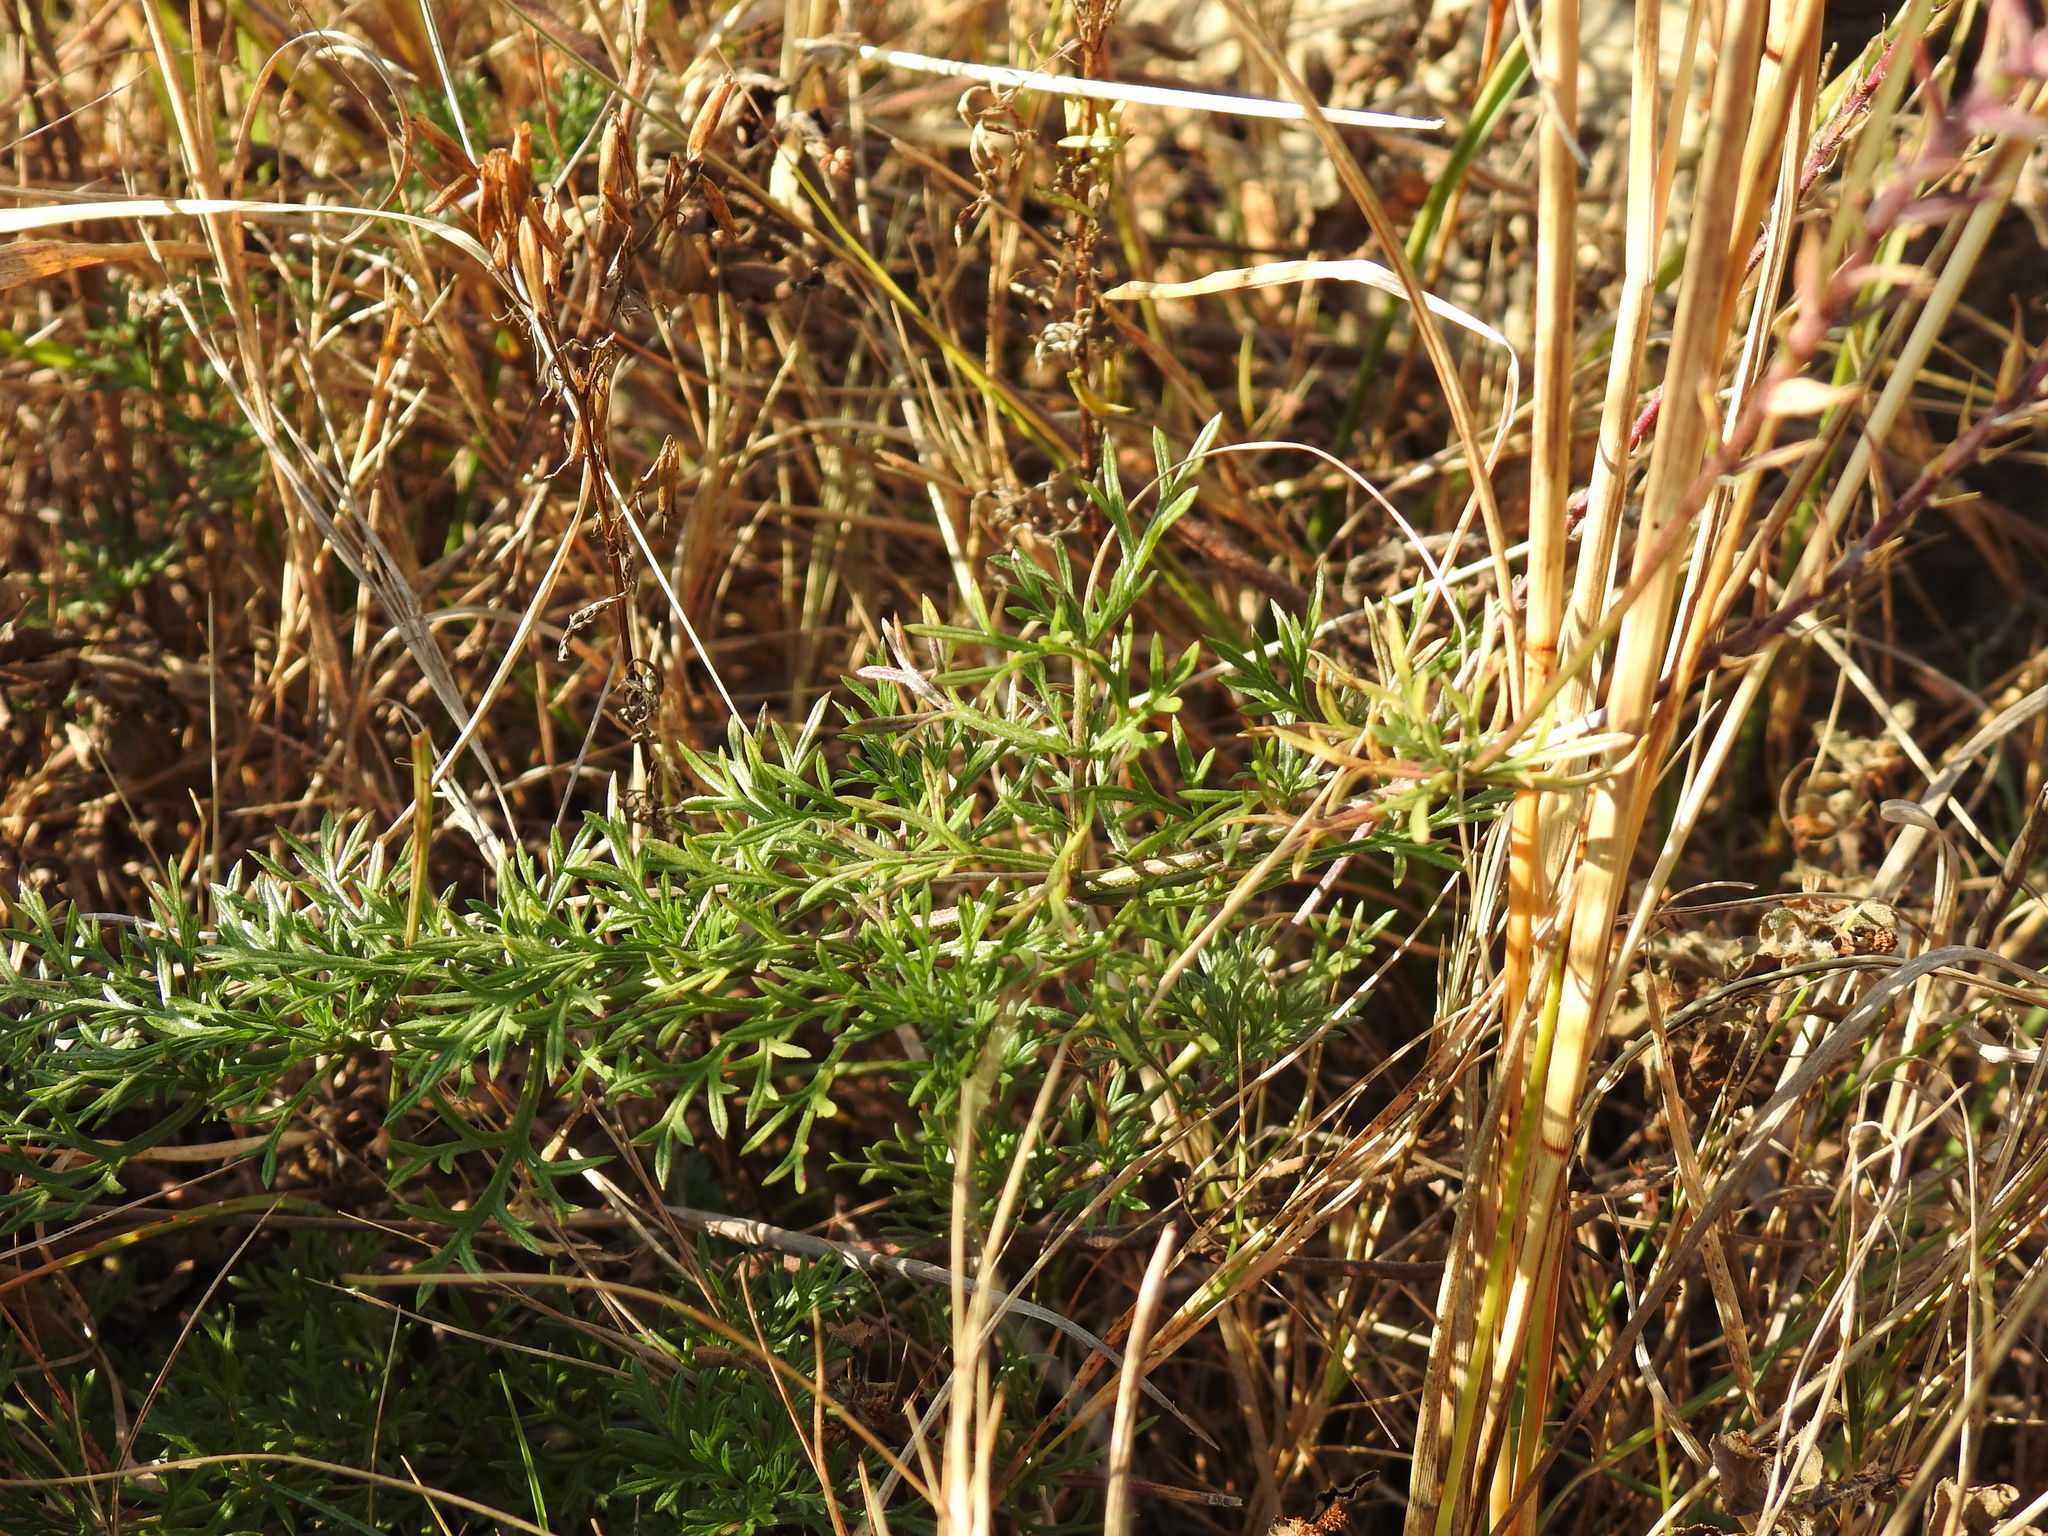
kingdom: Plantae
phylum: Tracheophyta
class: Magnoliopsida
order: Lamiales
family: Verbenaceae
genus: Verbena
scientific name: Verbena aristigera
